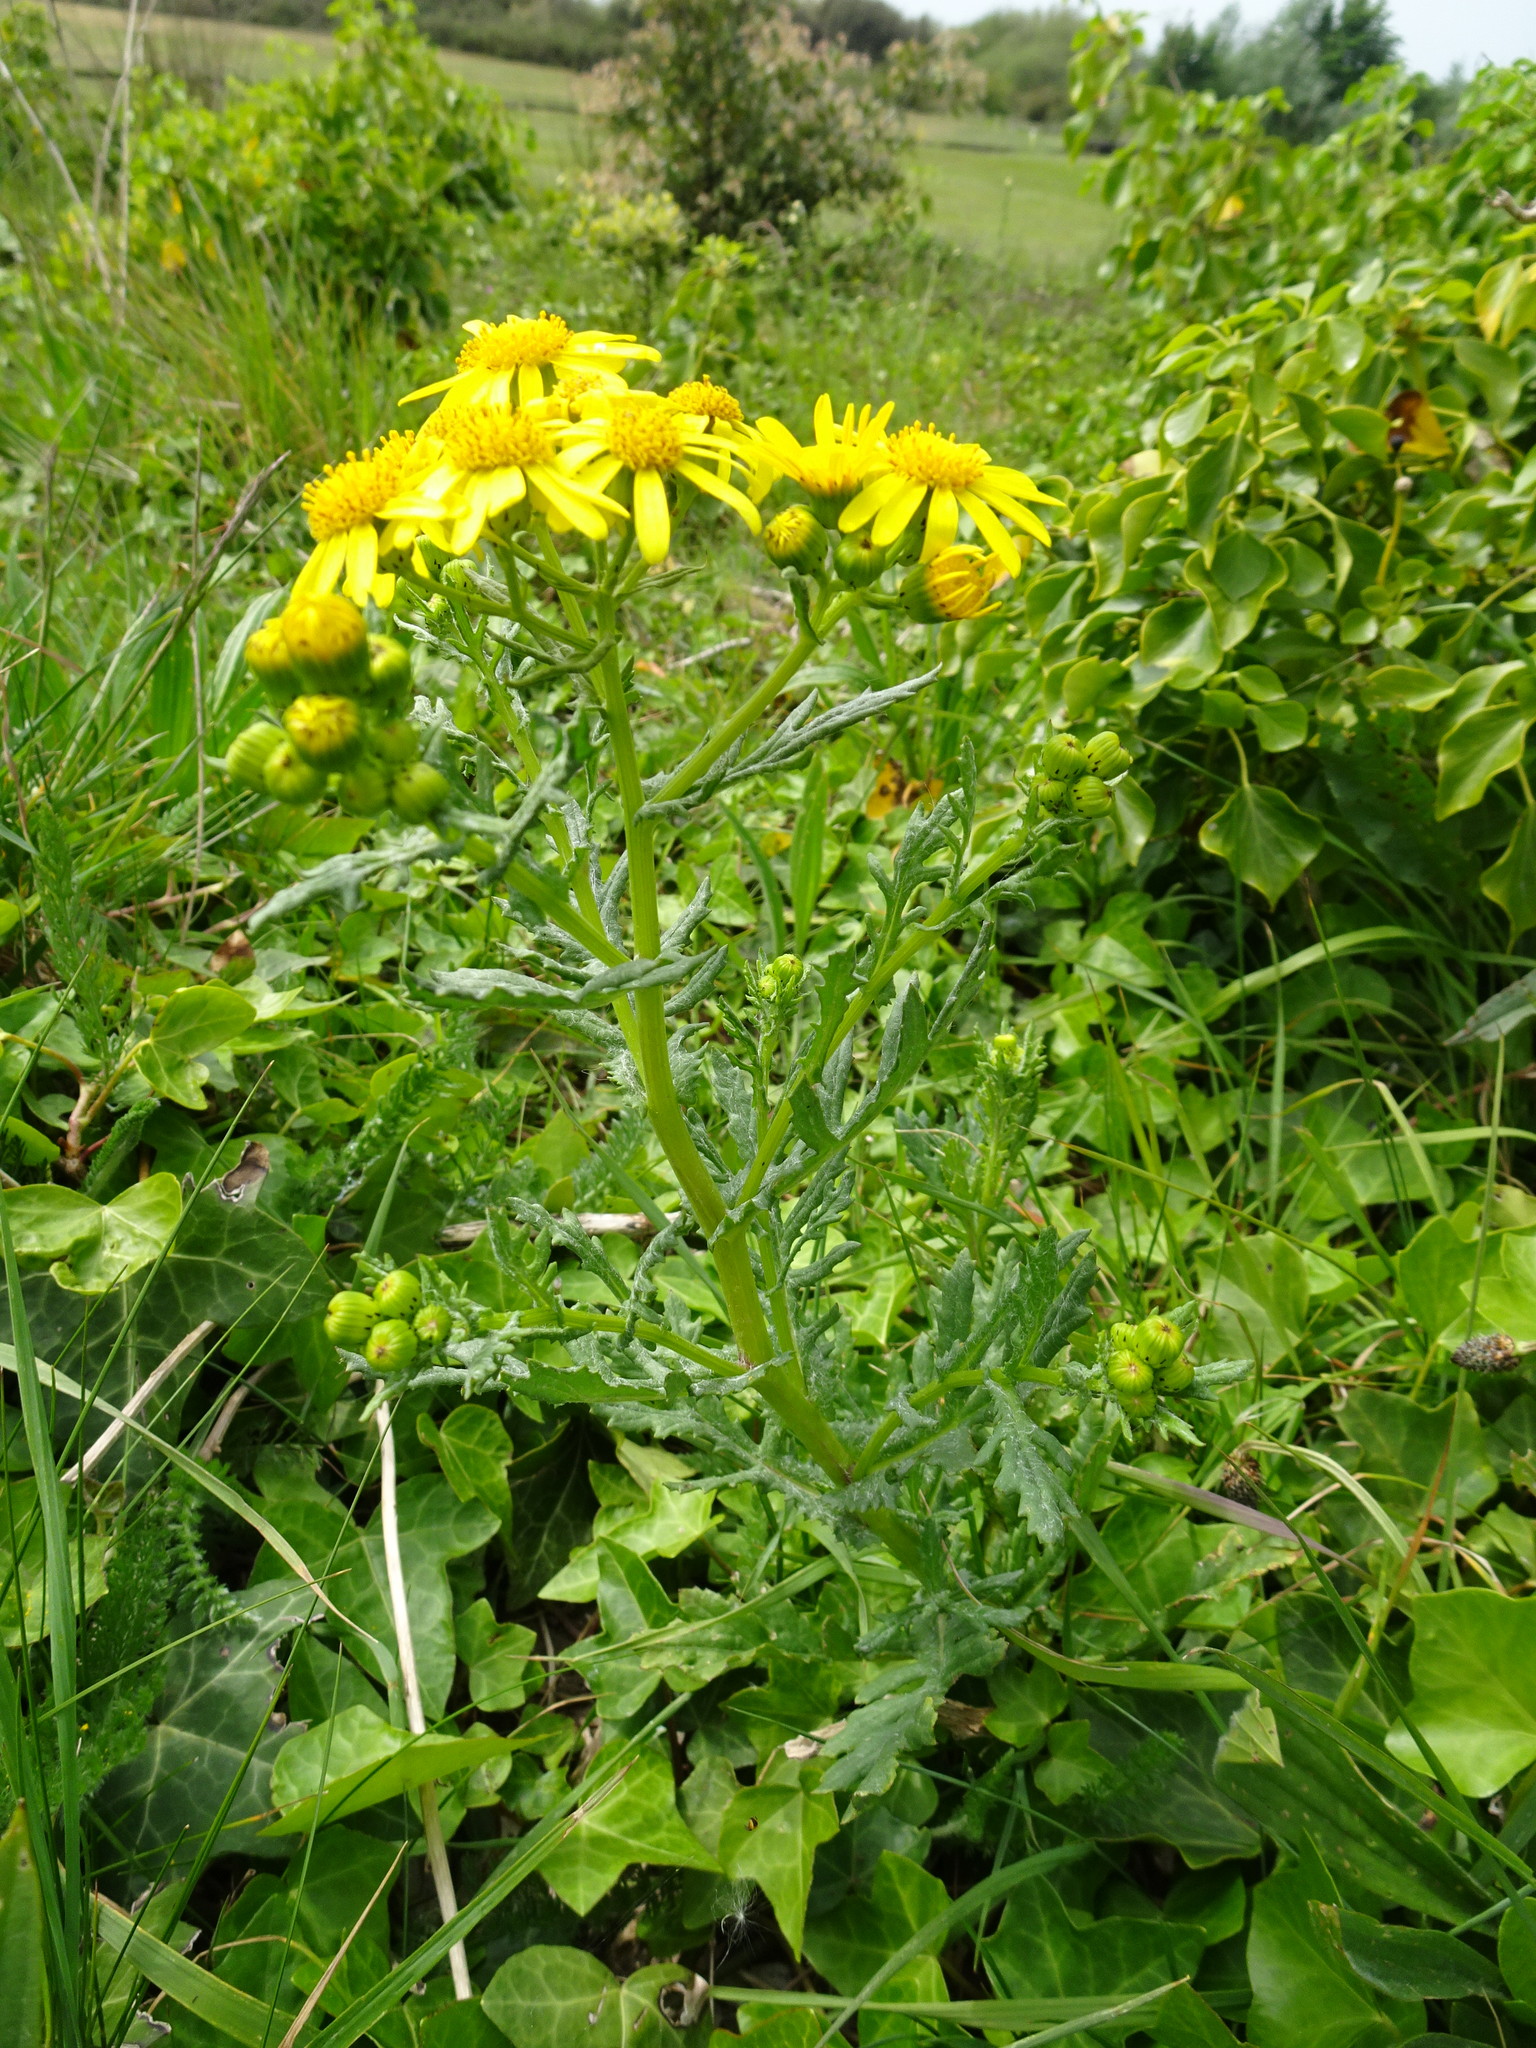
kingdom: Plantae
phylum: Tracheophyta
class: Magnoliopsida
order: Asterales
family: Asteraceae
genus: Senecio
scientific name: Senecio squalidus
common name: Oxford ragwort
